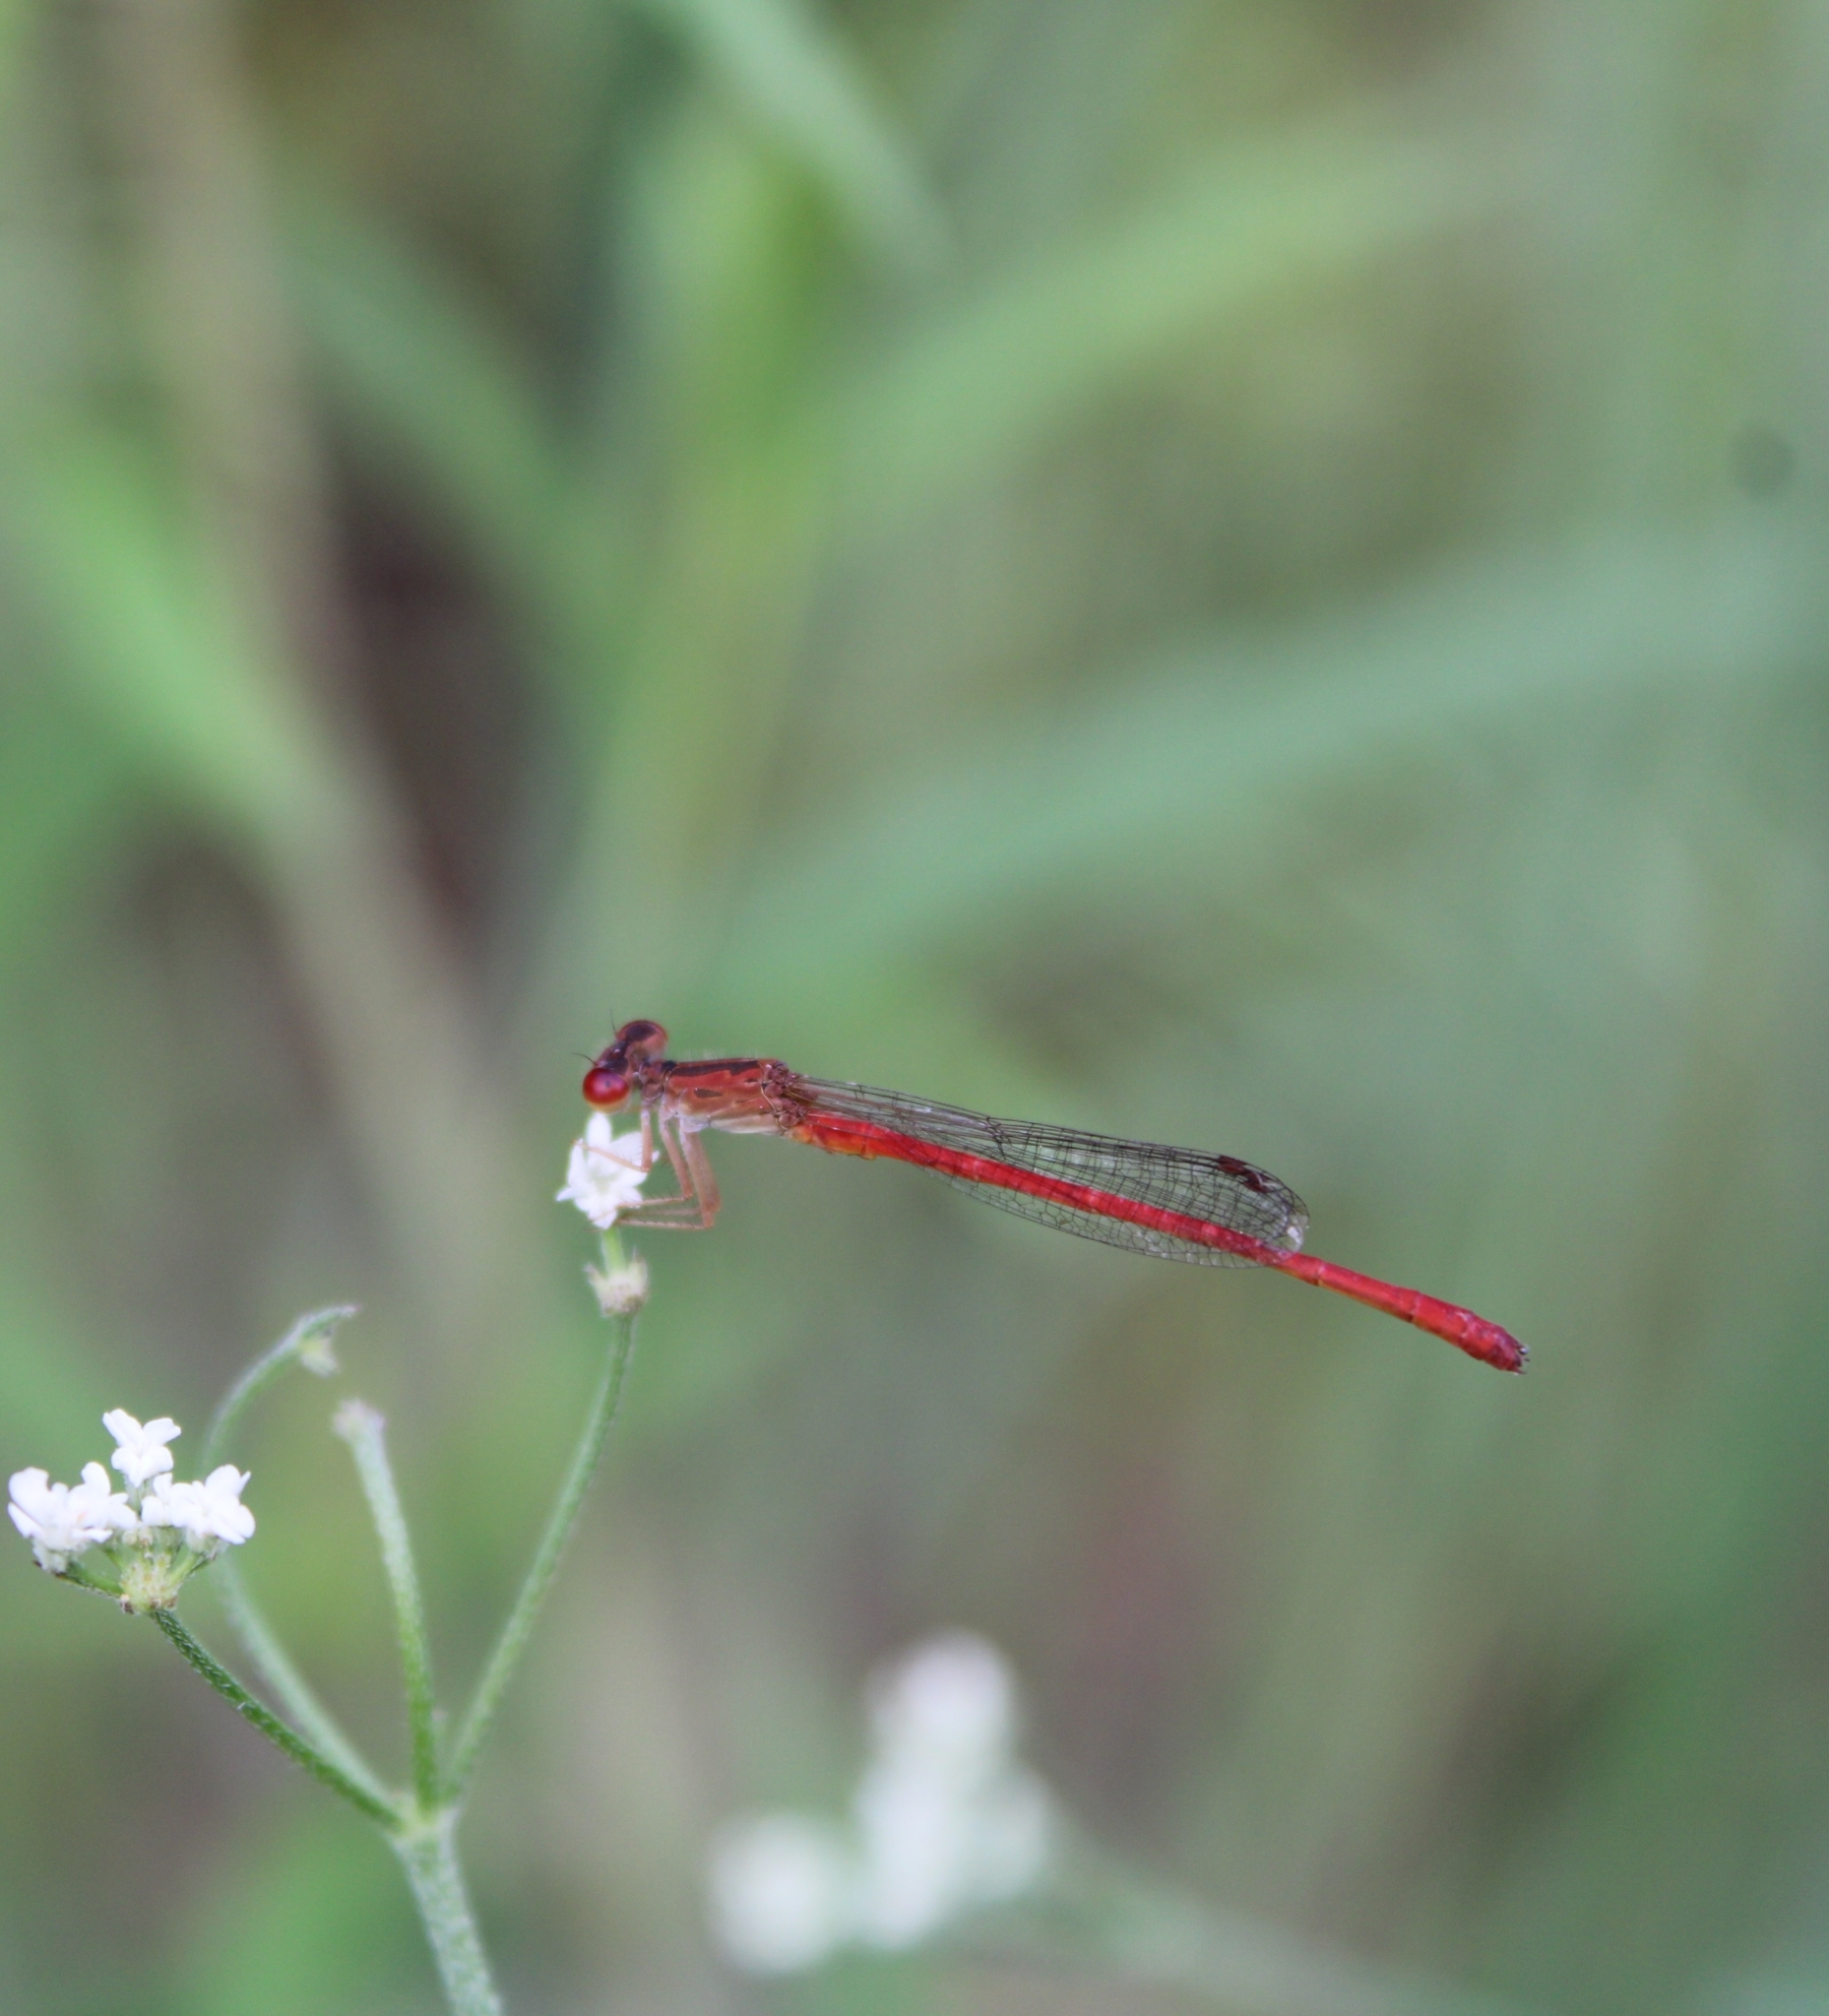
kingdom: Animalia
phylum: Arthropoda
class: Insecta
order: Odonata
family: Coenagrionidae
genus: Telebasis
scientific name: Telebasis salva
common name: Desert firetail
